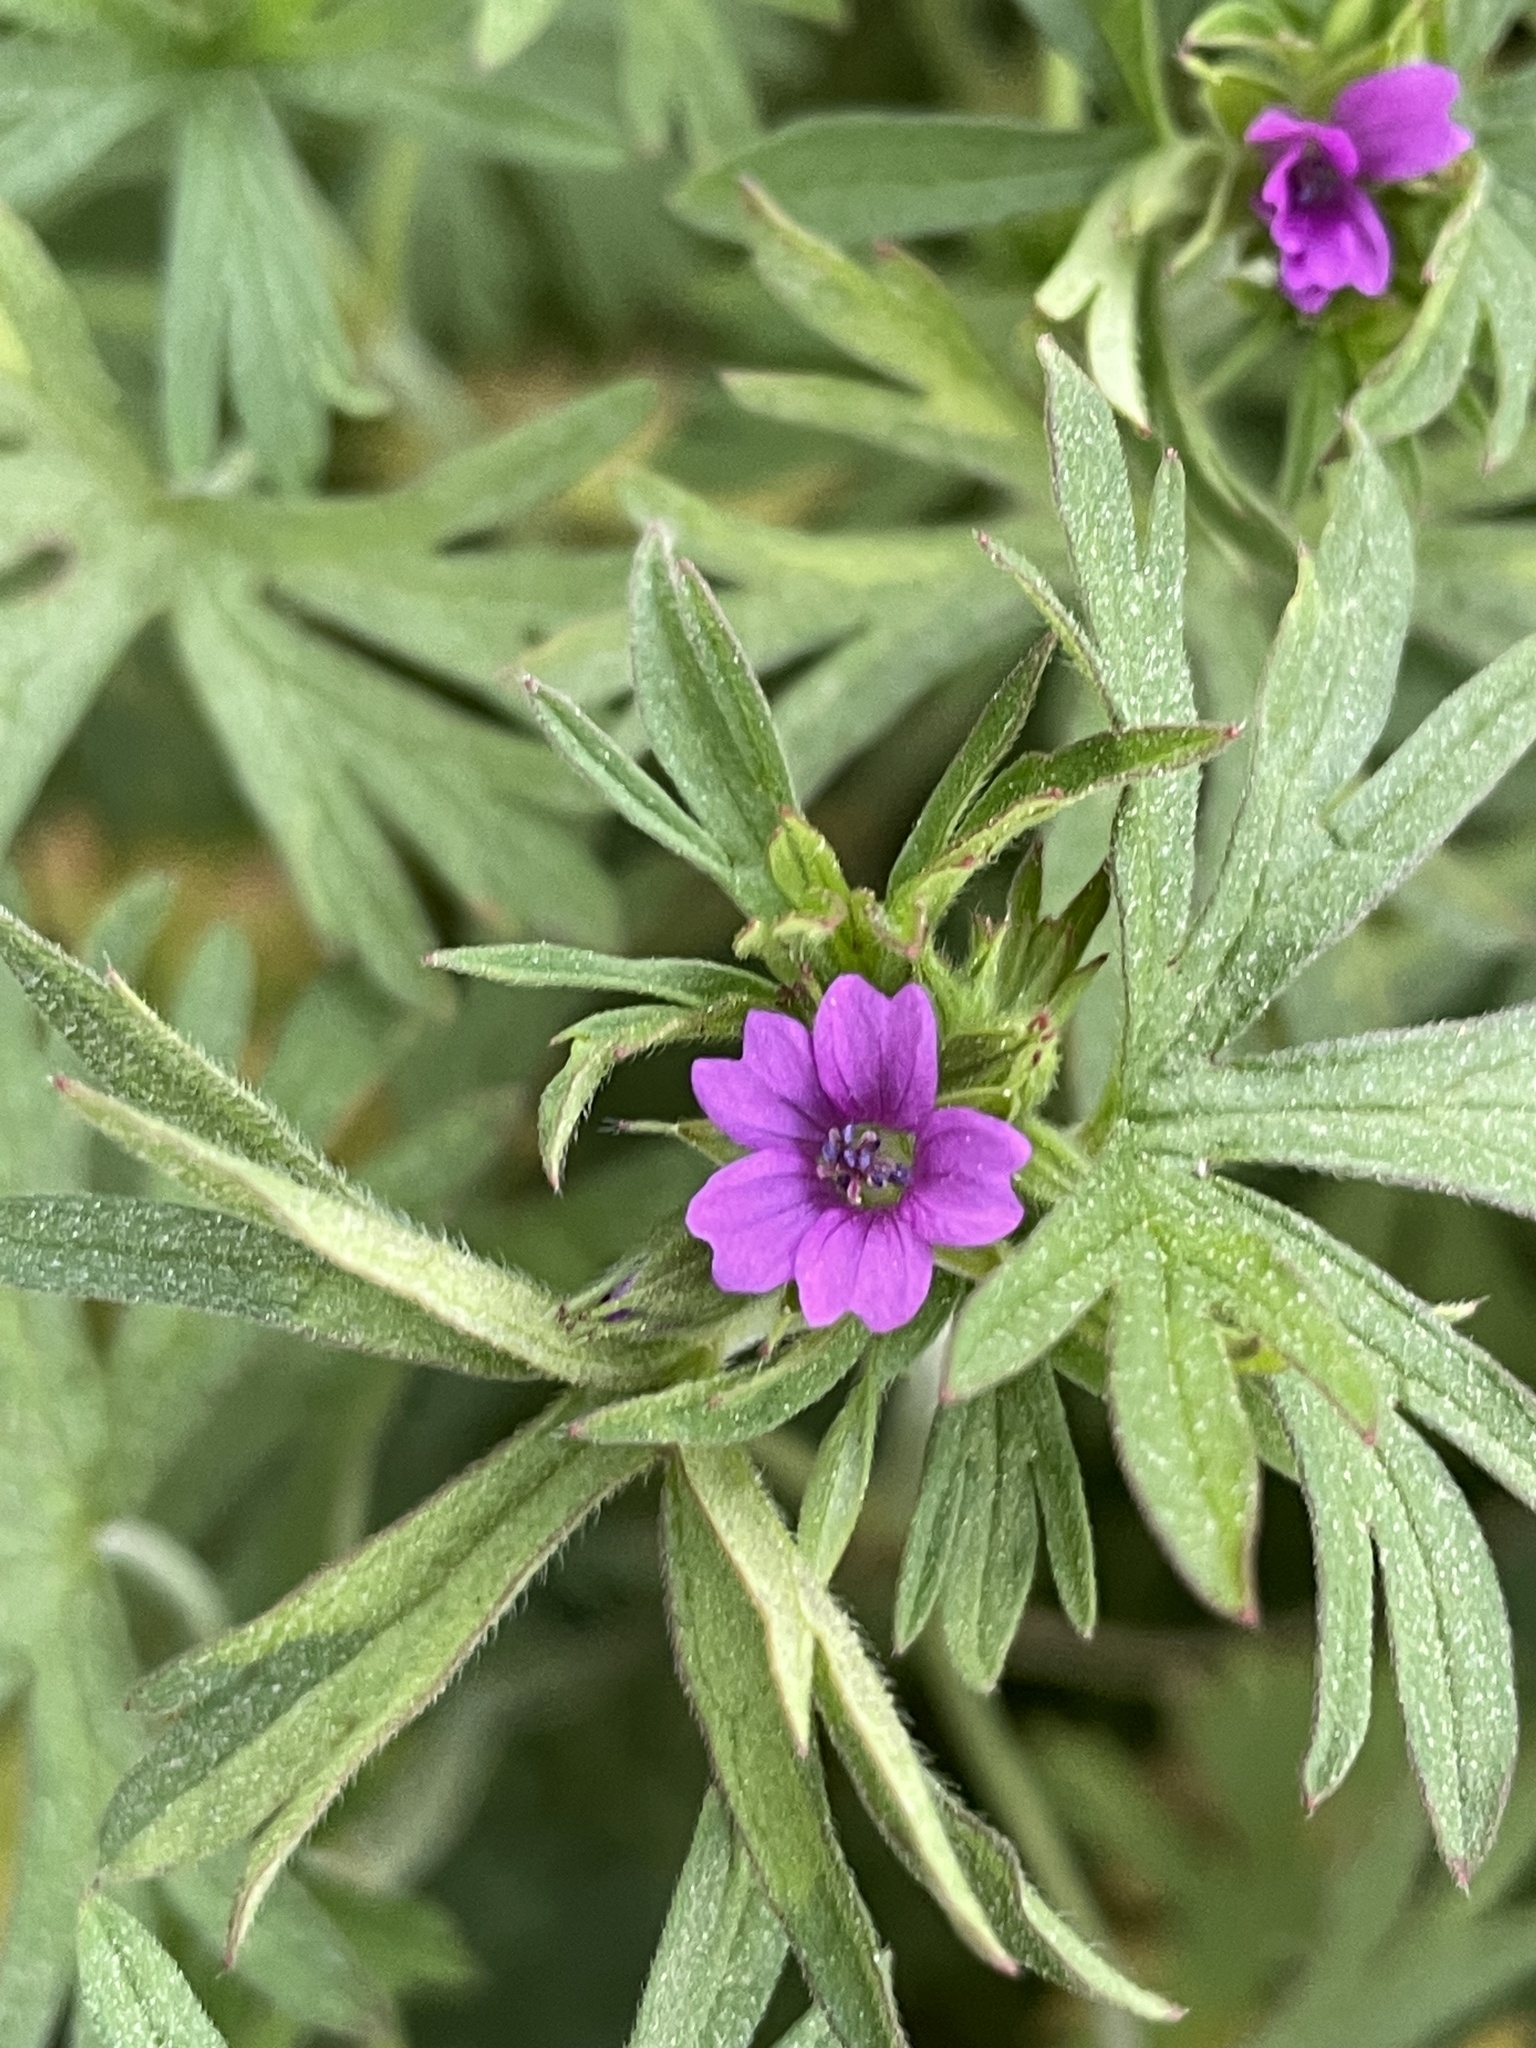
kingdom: Plantae
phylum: Tracheophyta
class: Magnoliopsida
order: Geraniales
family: Geraniaceae
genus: Geranium
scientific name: Geranium dissectum
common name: Cut-leaved crane's-bill
